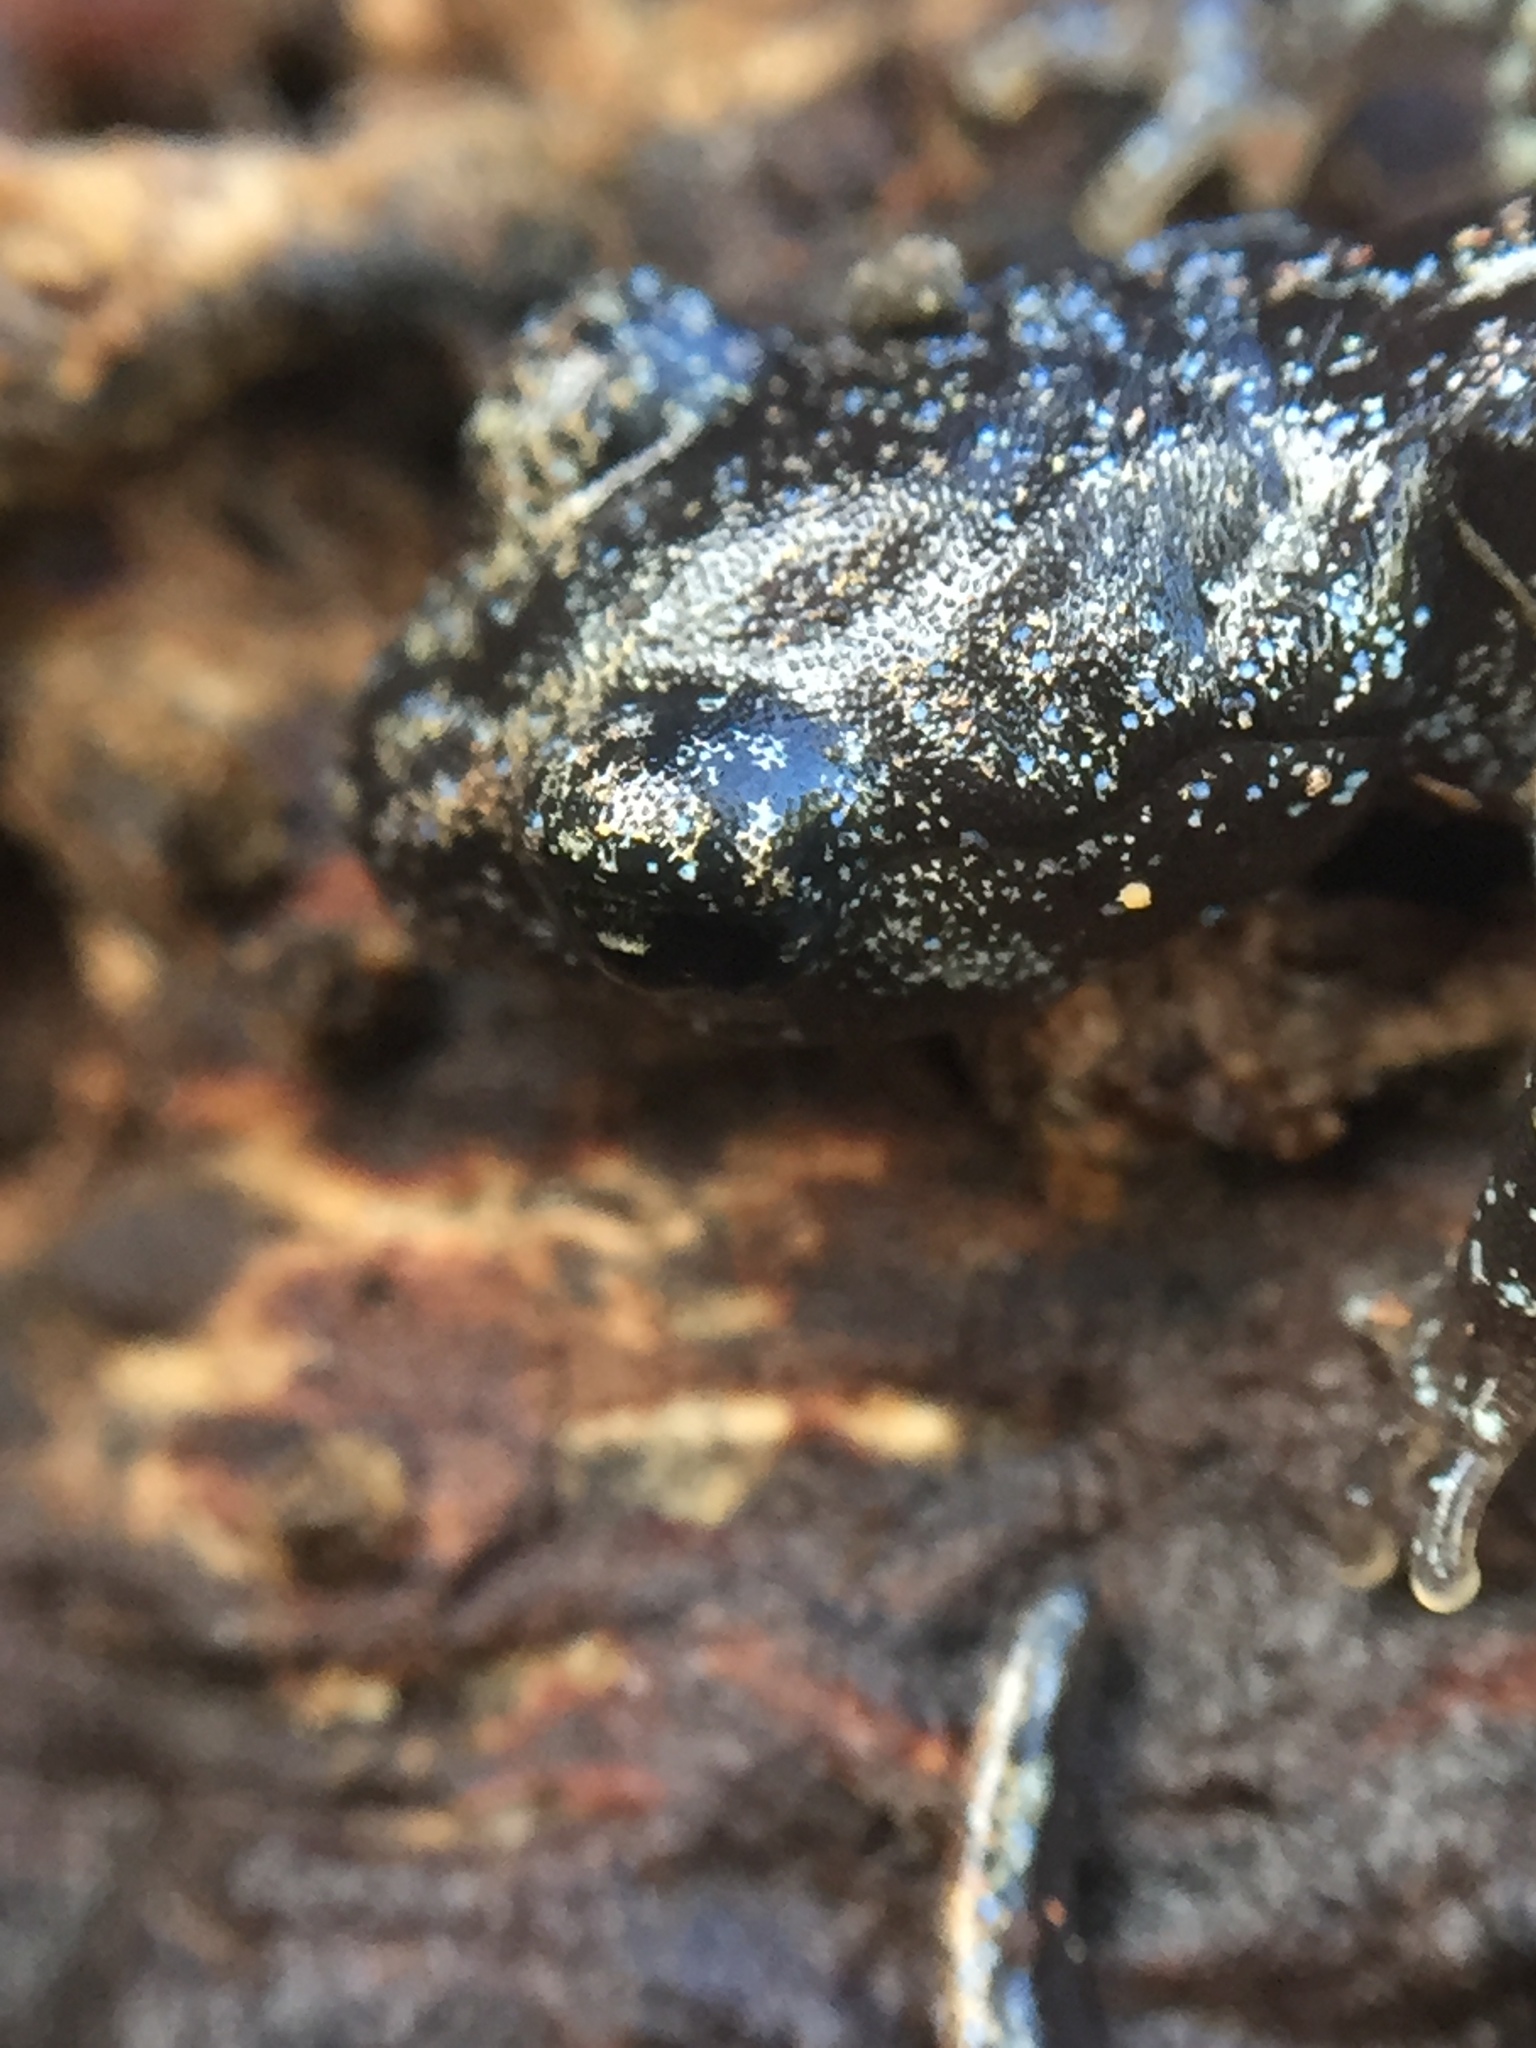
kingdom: Animalia
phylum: Chordata
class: Amphibia
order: Caudata
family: Plethodontidae
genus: Aneides
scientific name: Aneides lugubris
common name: Arboreal salamander
